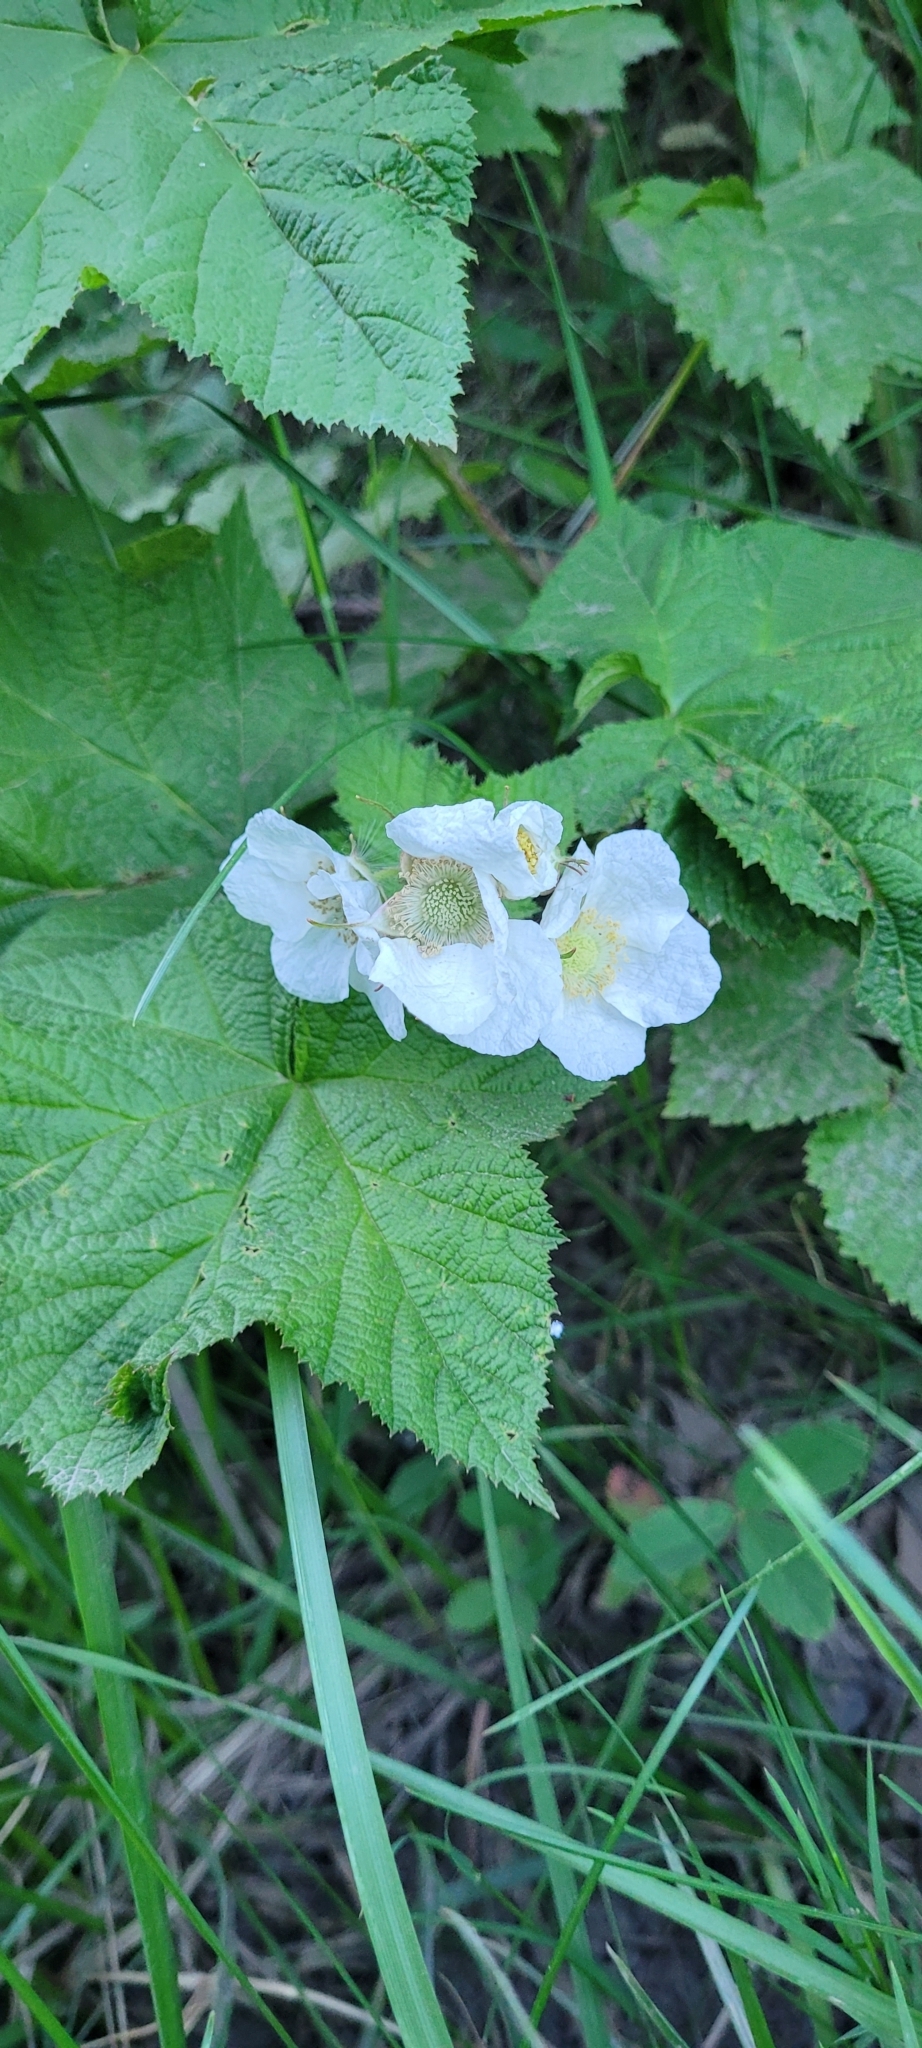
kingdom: Plantae
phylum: Tracheophyta
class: Magnoliopsida
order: Rosales
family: Rosaceae
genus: Rubus
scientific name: Rubus parviflorus
